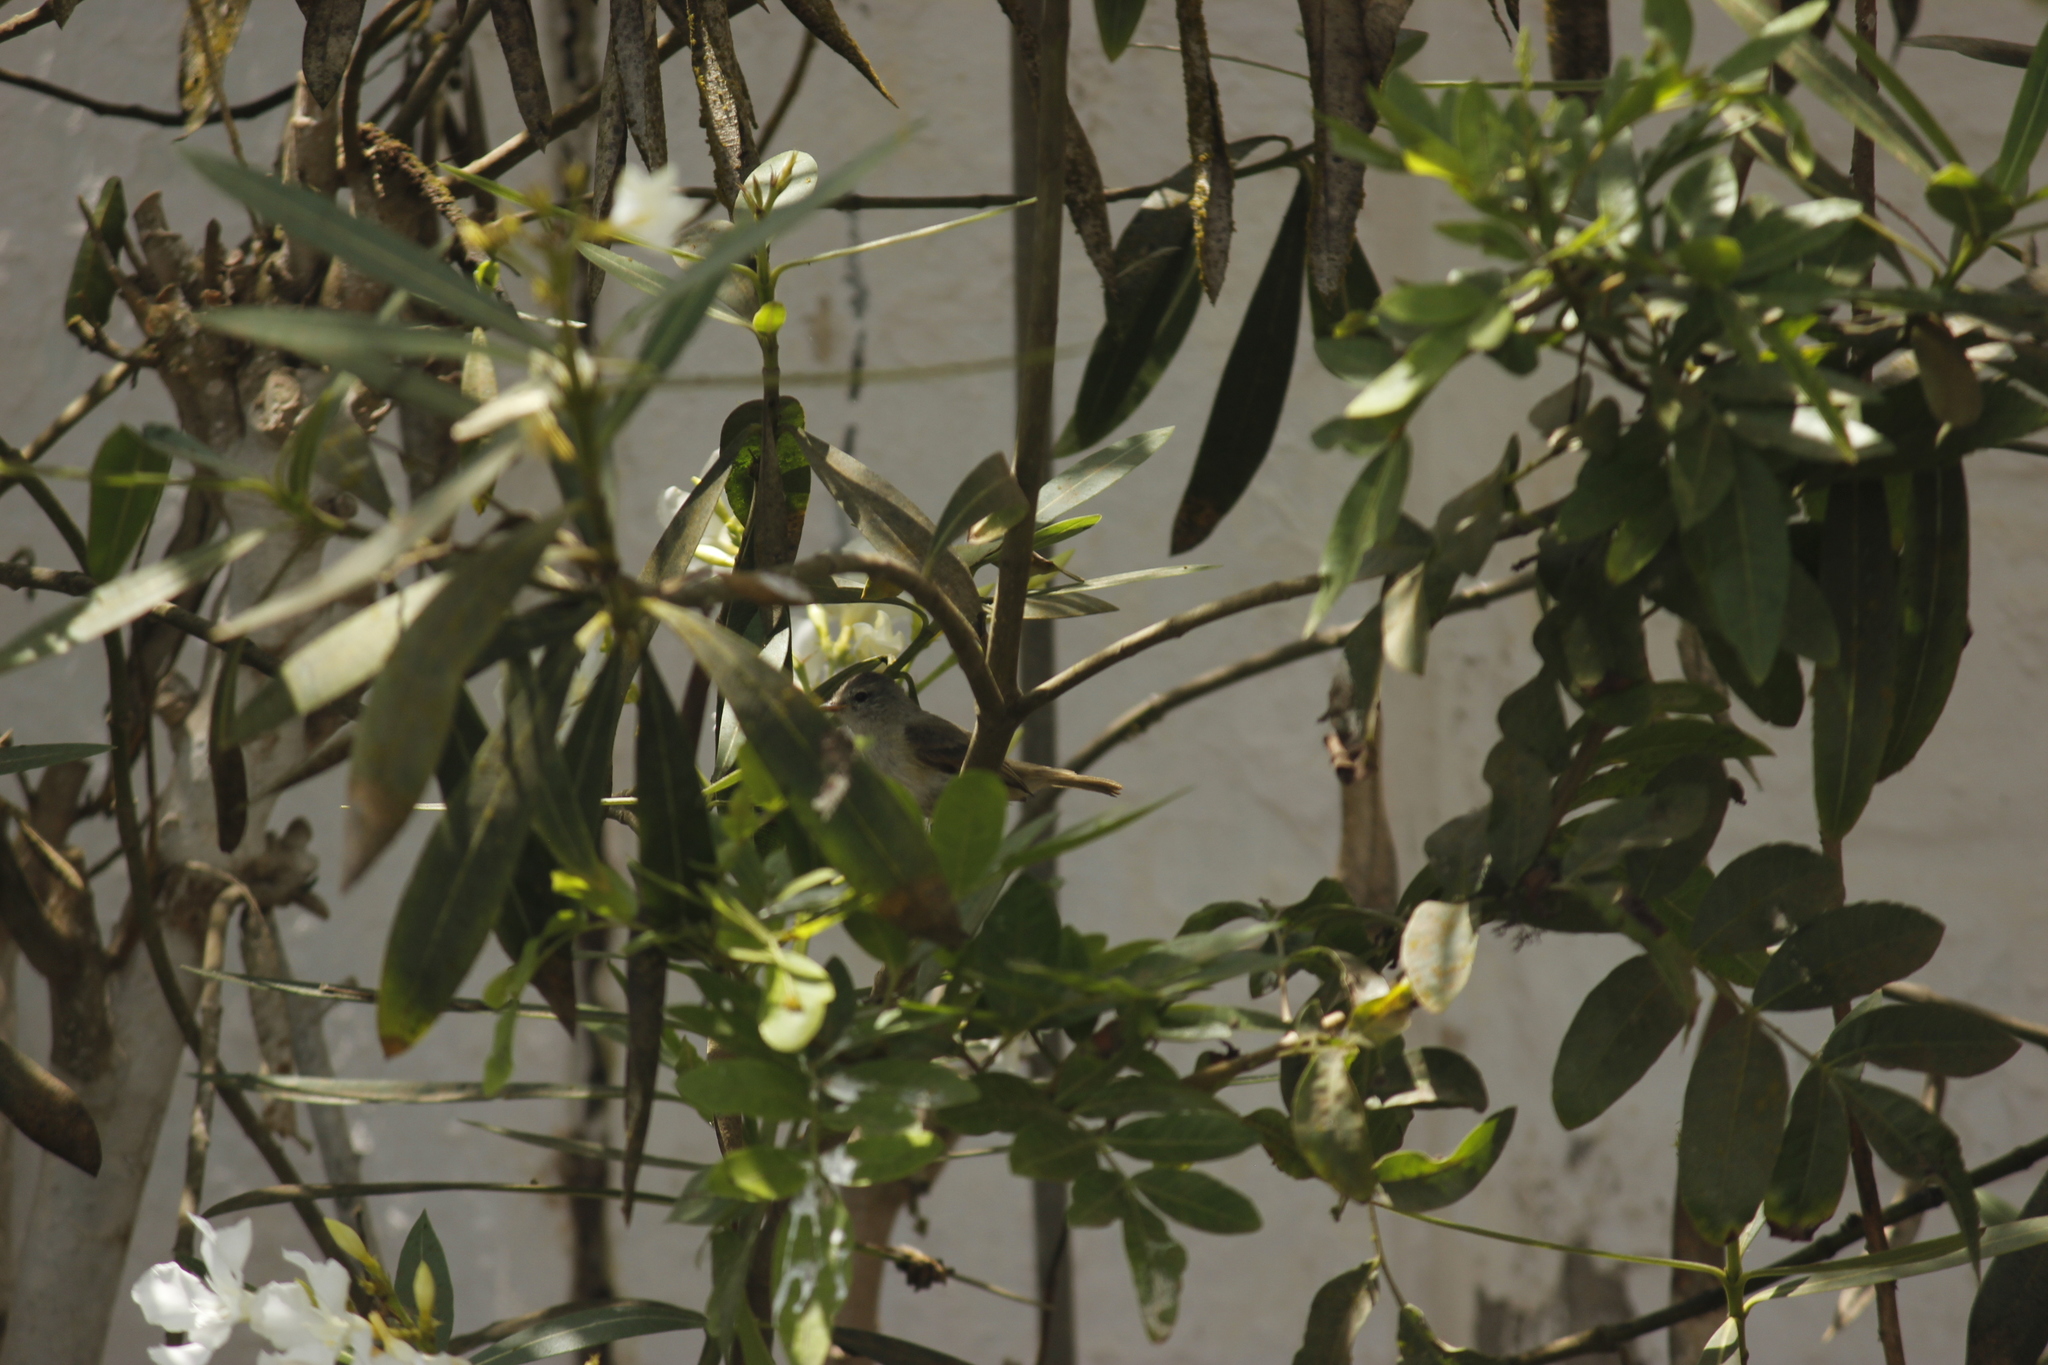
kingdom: Animalia
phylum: Chordata
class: Aves
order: Passeriformes
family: Tyrannidae
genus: Camptostoma
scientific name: Camptostoma obsoletum
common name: Southern beardless-tyrannulet
